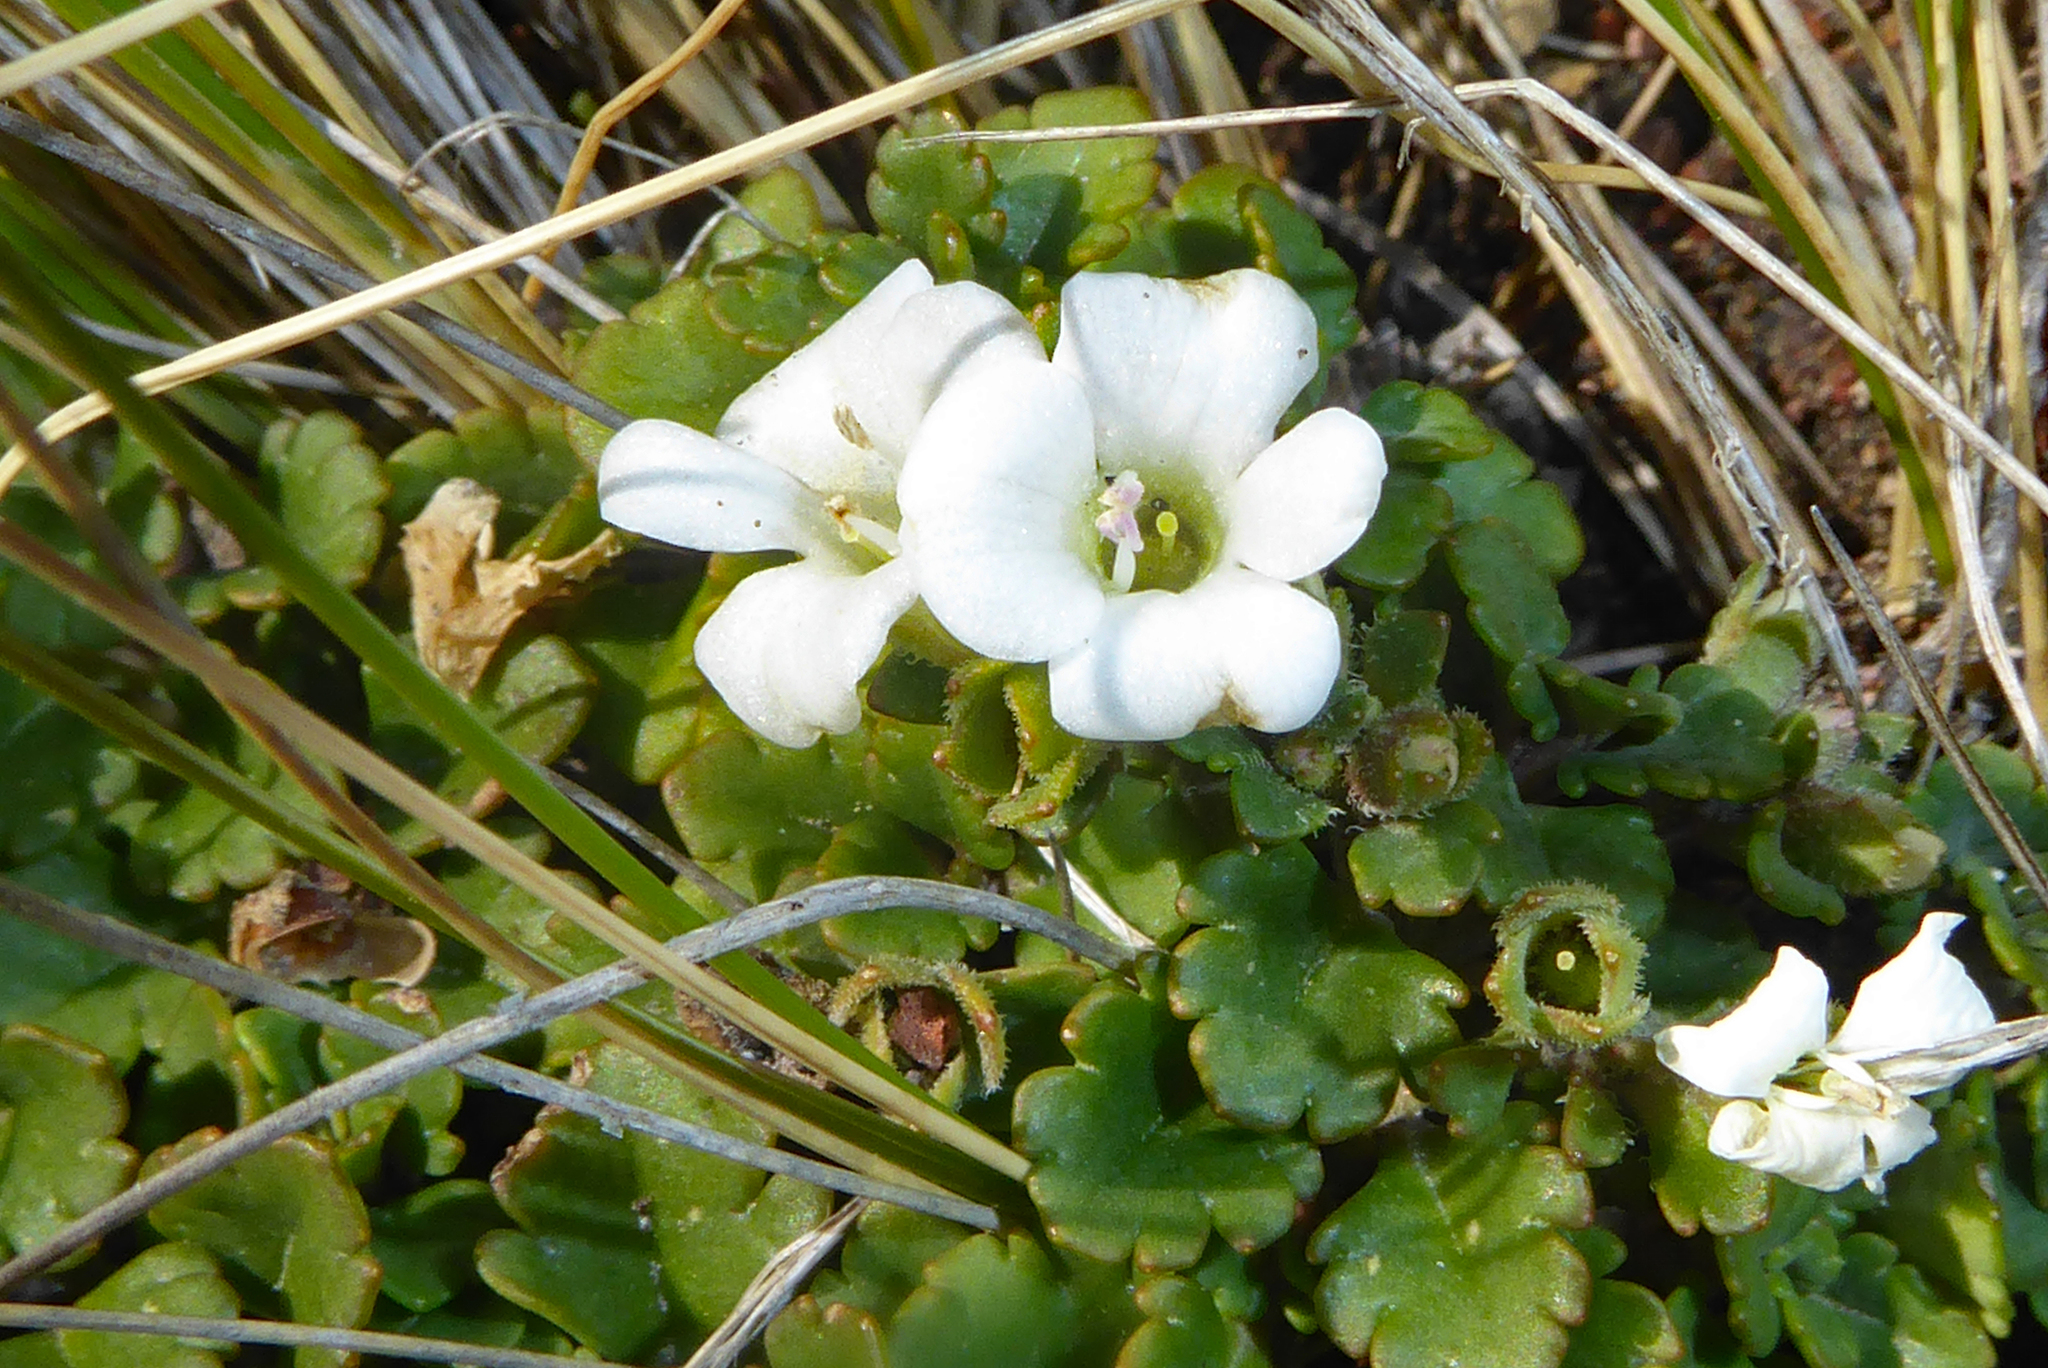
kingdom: Plantae
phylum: Tracheophyta
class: Magnoliopsida
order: Lamiales
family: Plantaginaceae
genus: Veronica
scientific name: Veronica spathulata
